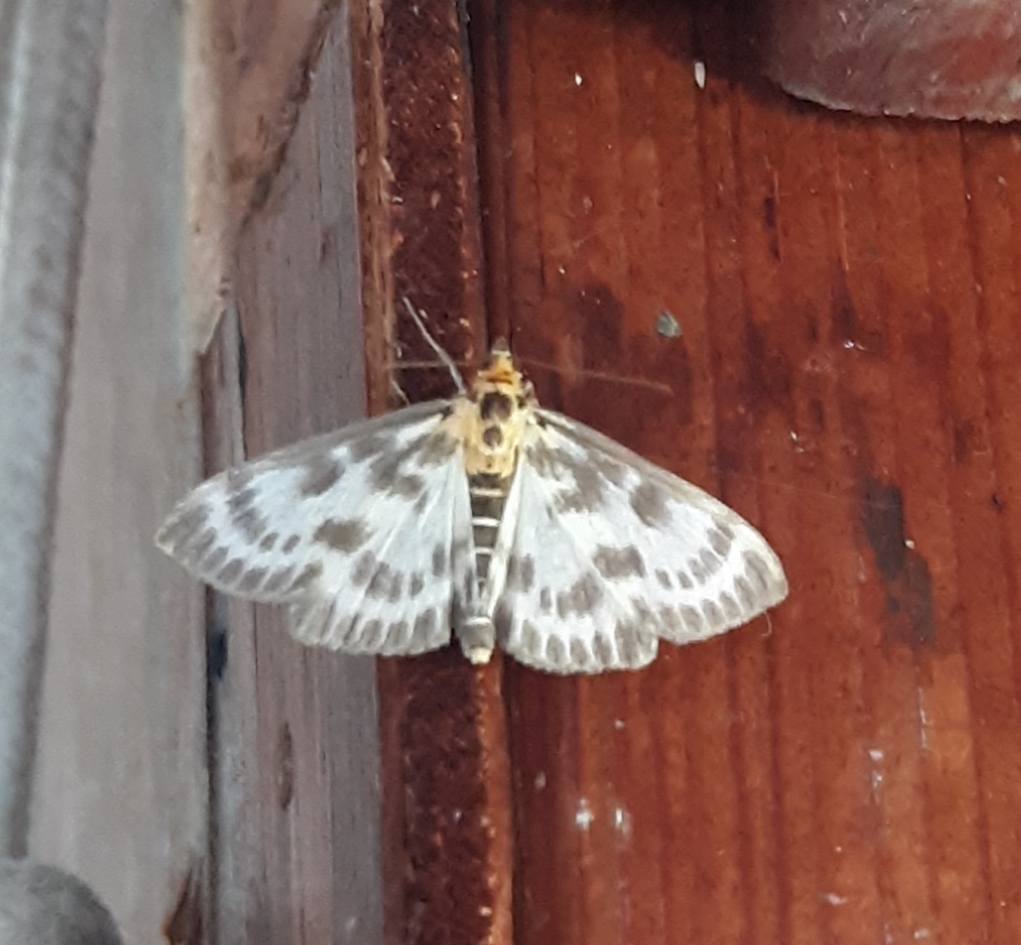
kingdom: Animalia
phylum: Arthropoda
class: Insecta
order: Lepidoptera
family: Crambidae
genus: Anania
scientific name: Anania hortulata
